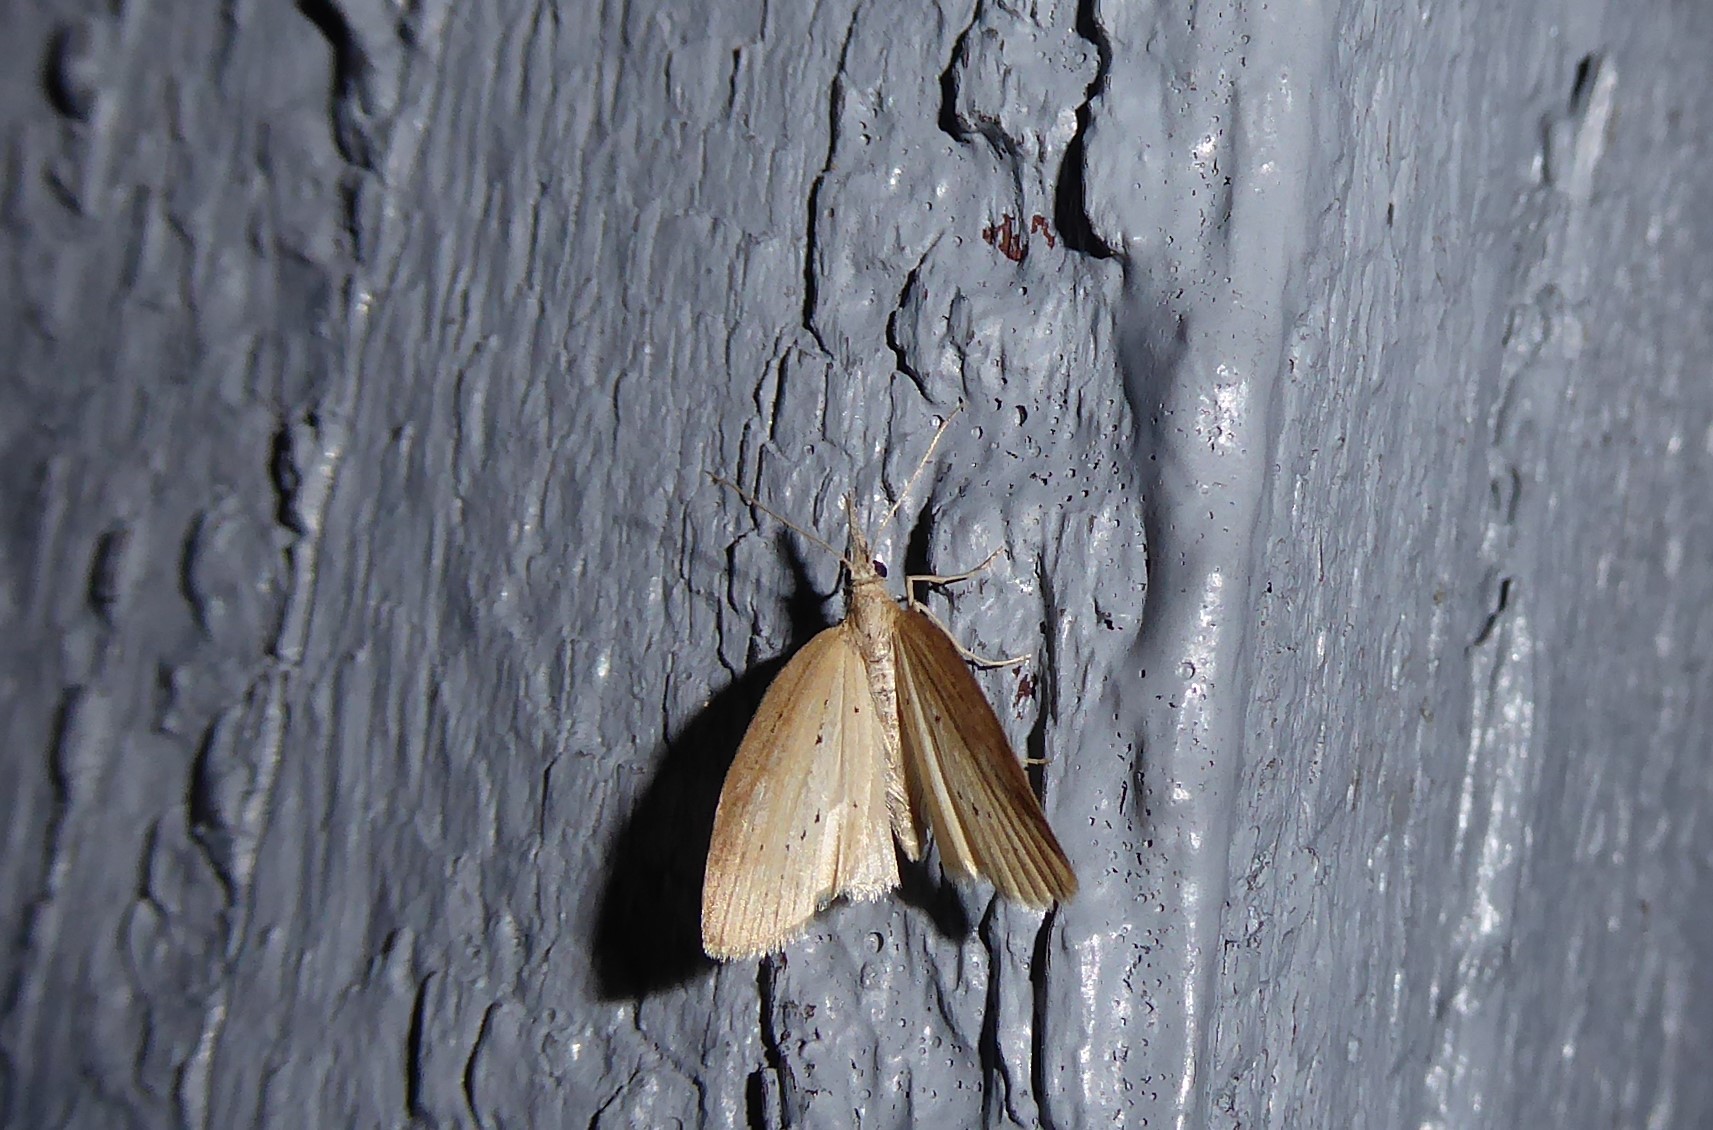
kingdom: Animalia
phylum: Arthropoda
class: Insecta
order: Lepidoptera
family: Geometridae
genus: Microdes
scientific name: Microdes epicryptis
